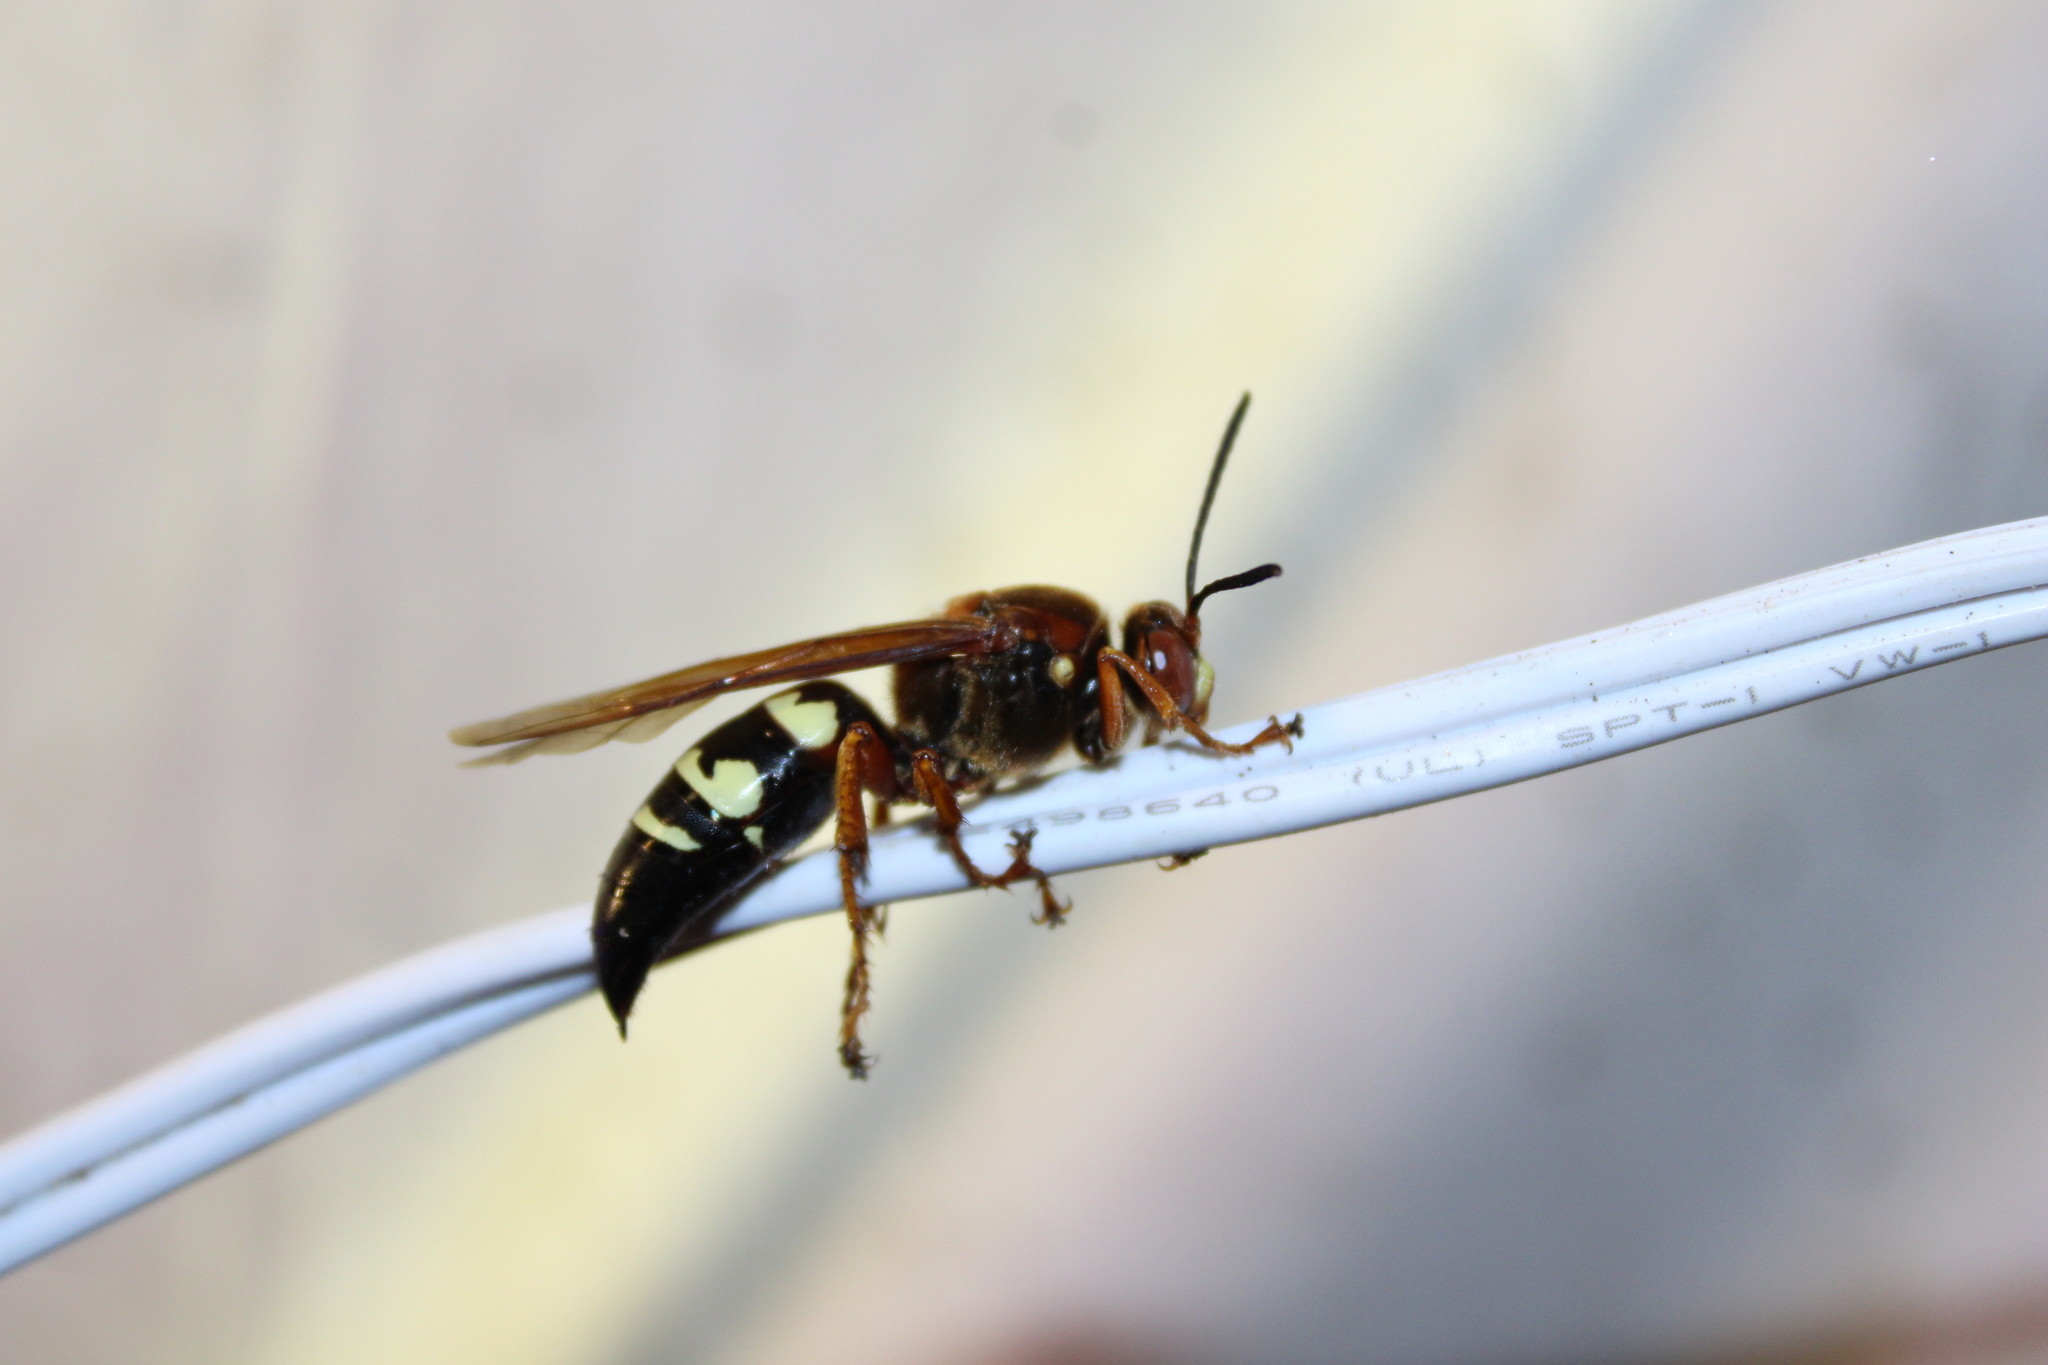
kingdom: Animalia
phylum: Arthropoda
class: Insecta
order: Hymenoptera
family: Crabronidae
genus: Sphecius
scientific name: Sphecius speciosus
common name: Cicada killer
